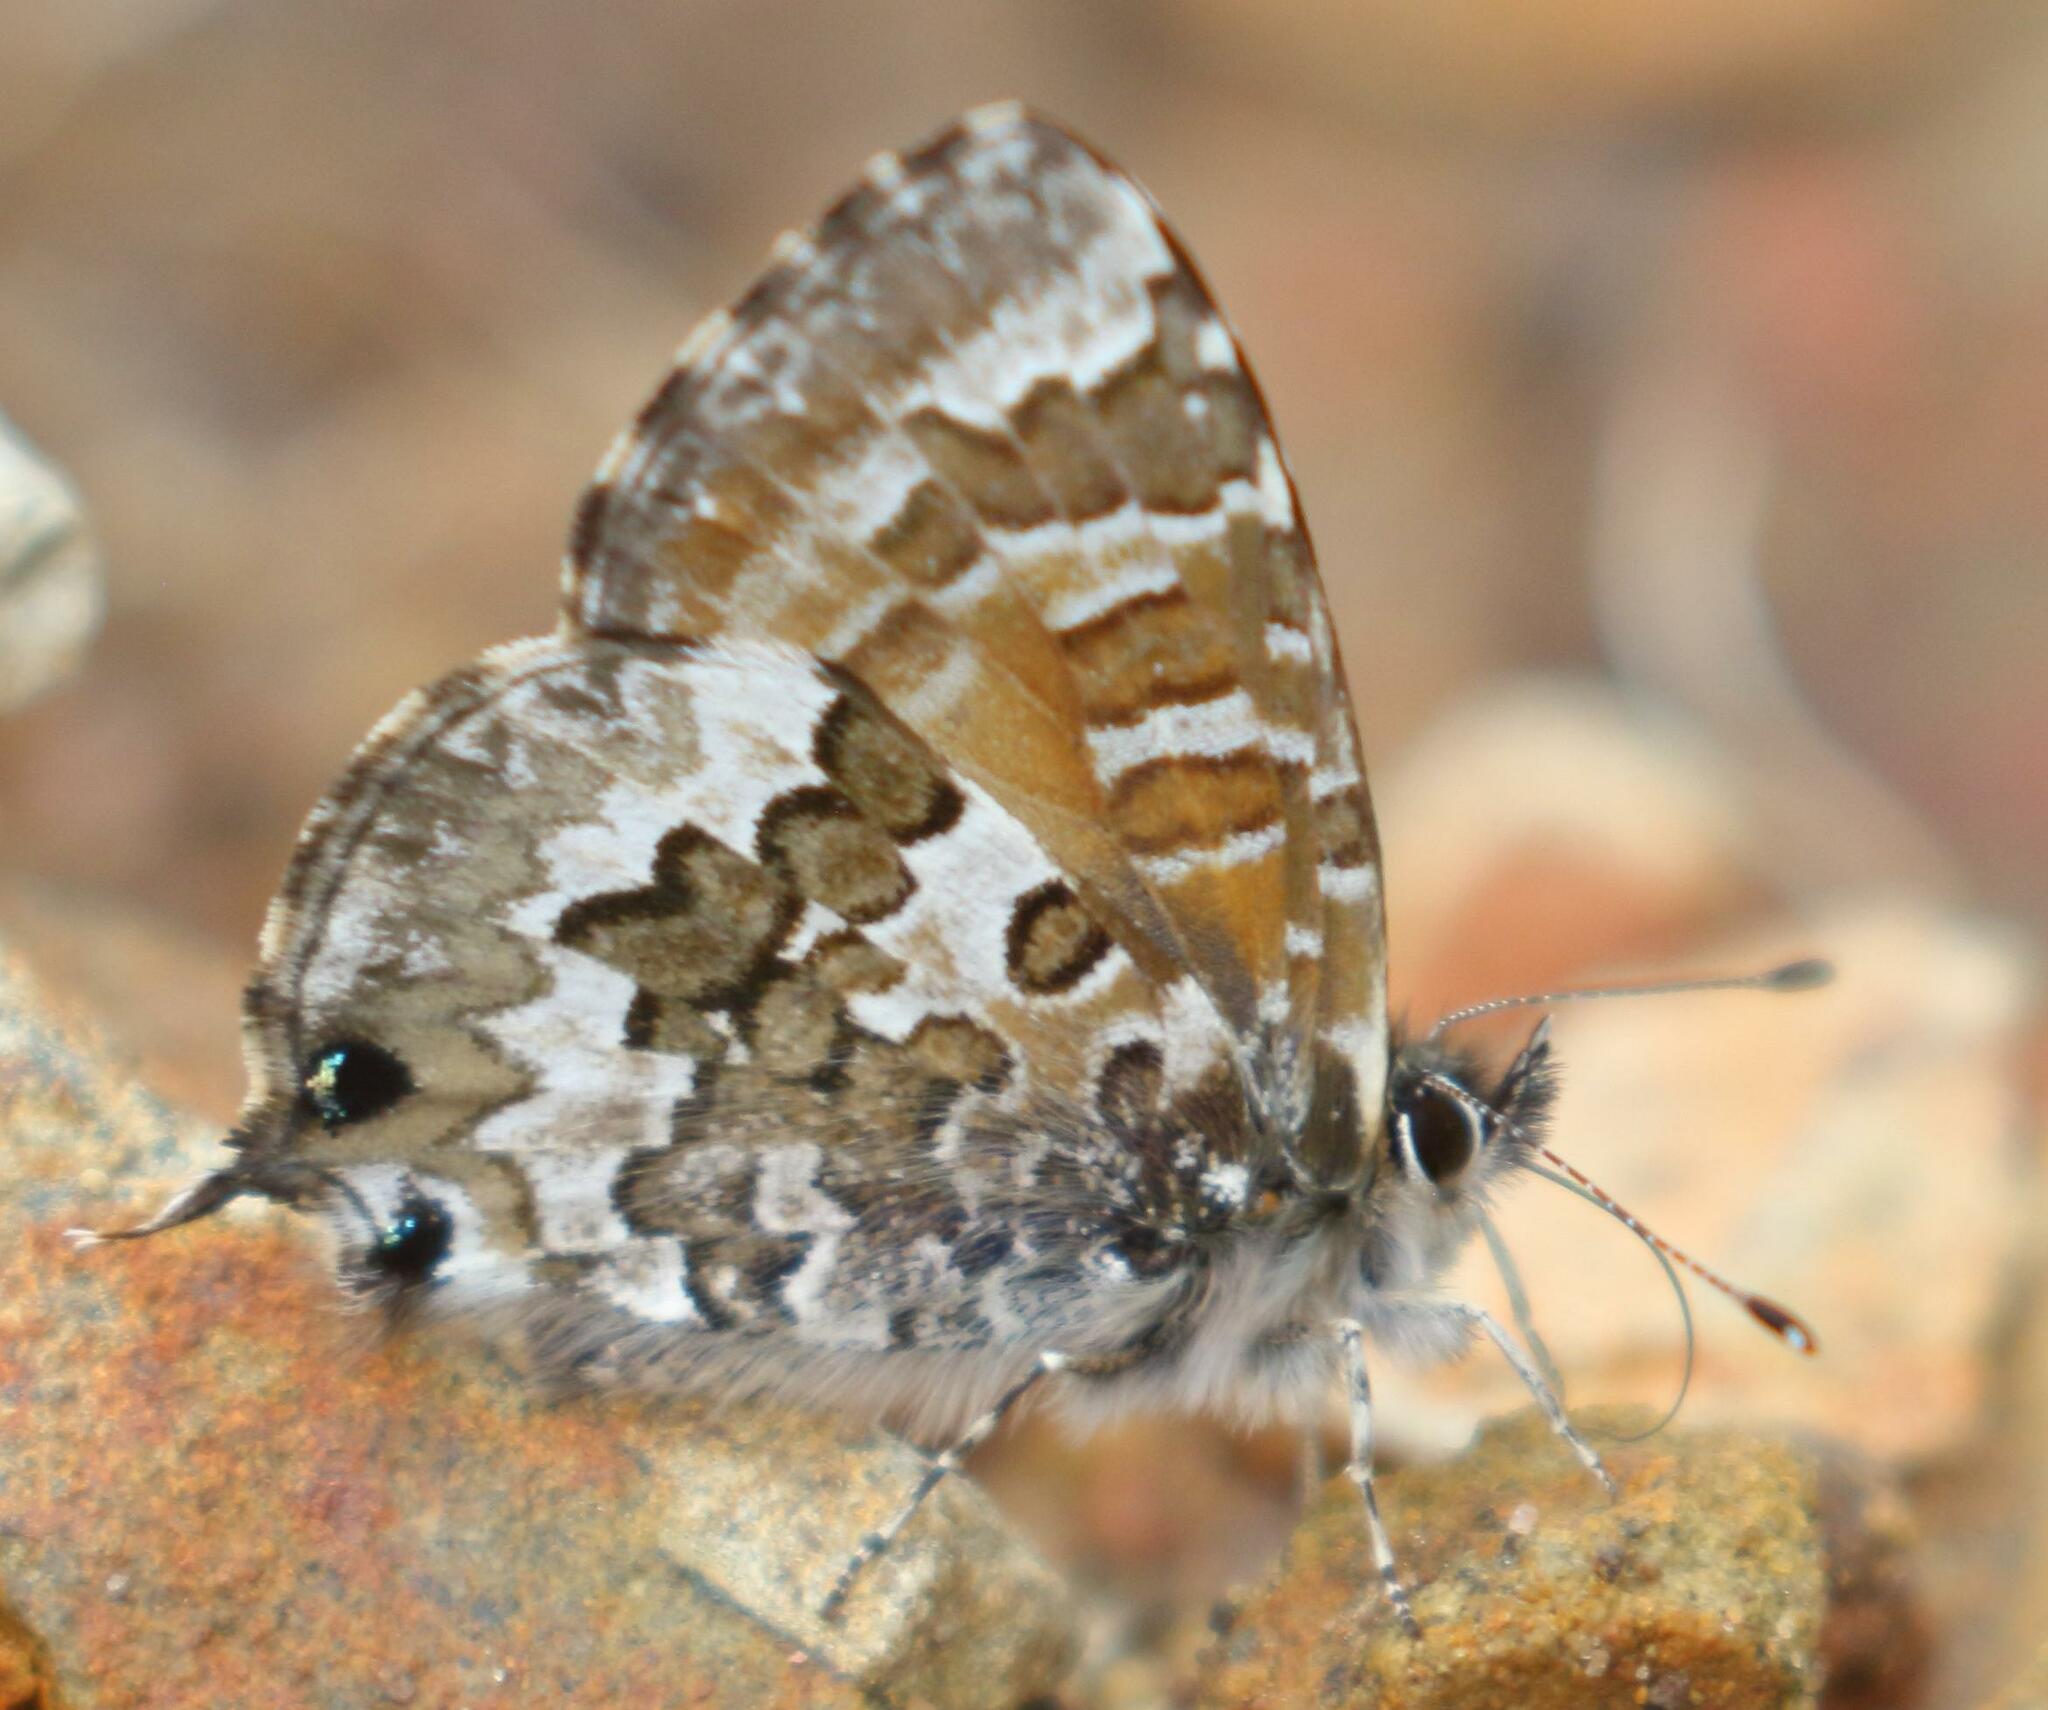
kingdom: Animalia
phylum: Arthropoda
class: Insecta
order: Lepidoptera
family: Lycaenidae
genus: Cupido
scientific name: Cupido nubifer
